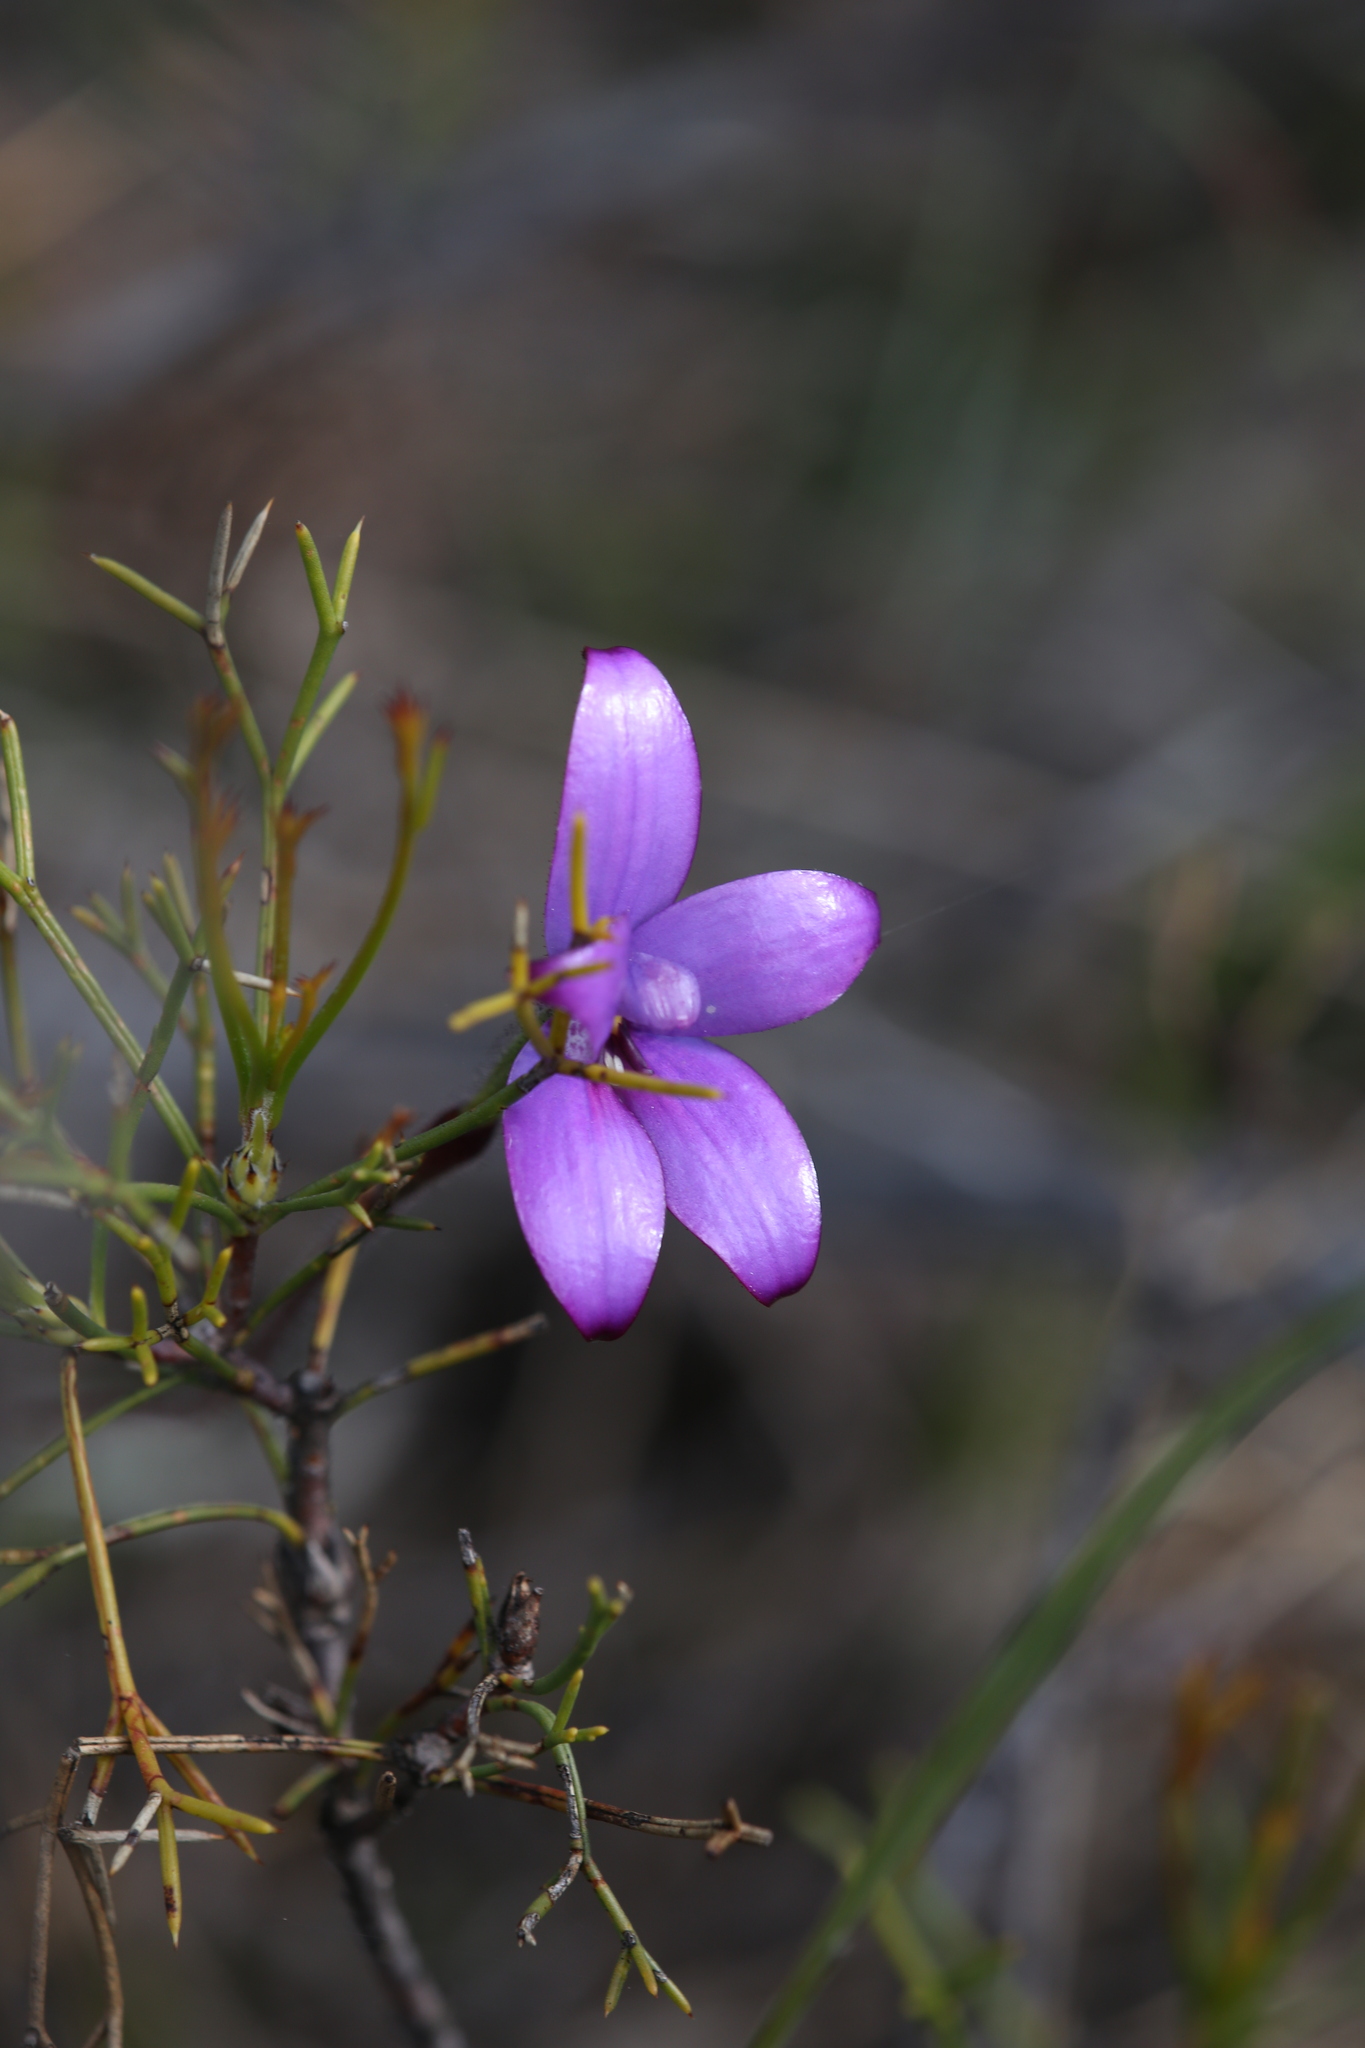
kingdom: Plantae
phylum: Tracheophyta
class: Liliopsida
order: Asparagales
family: Orchidaceae
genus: Caladenia
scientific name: Caladenia brunonis
